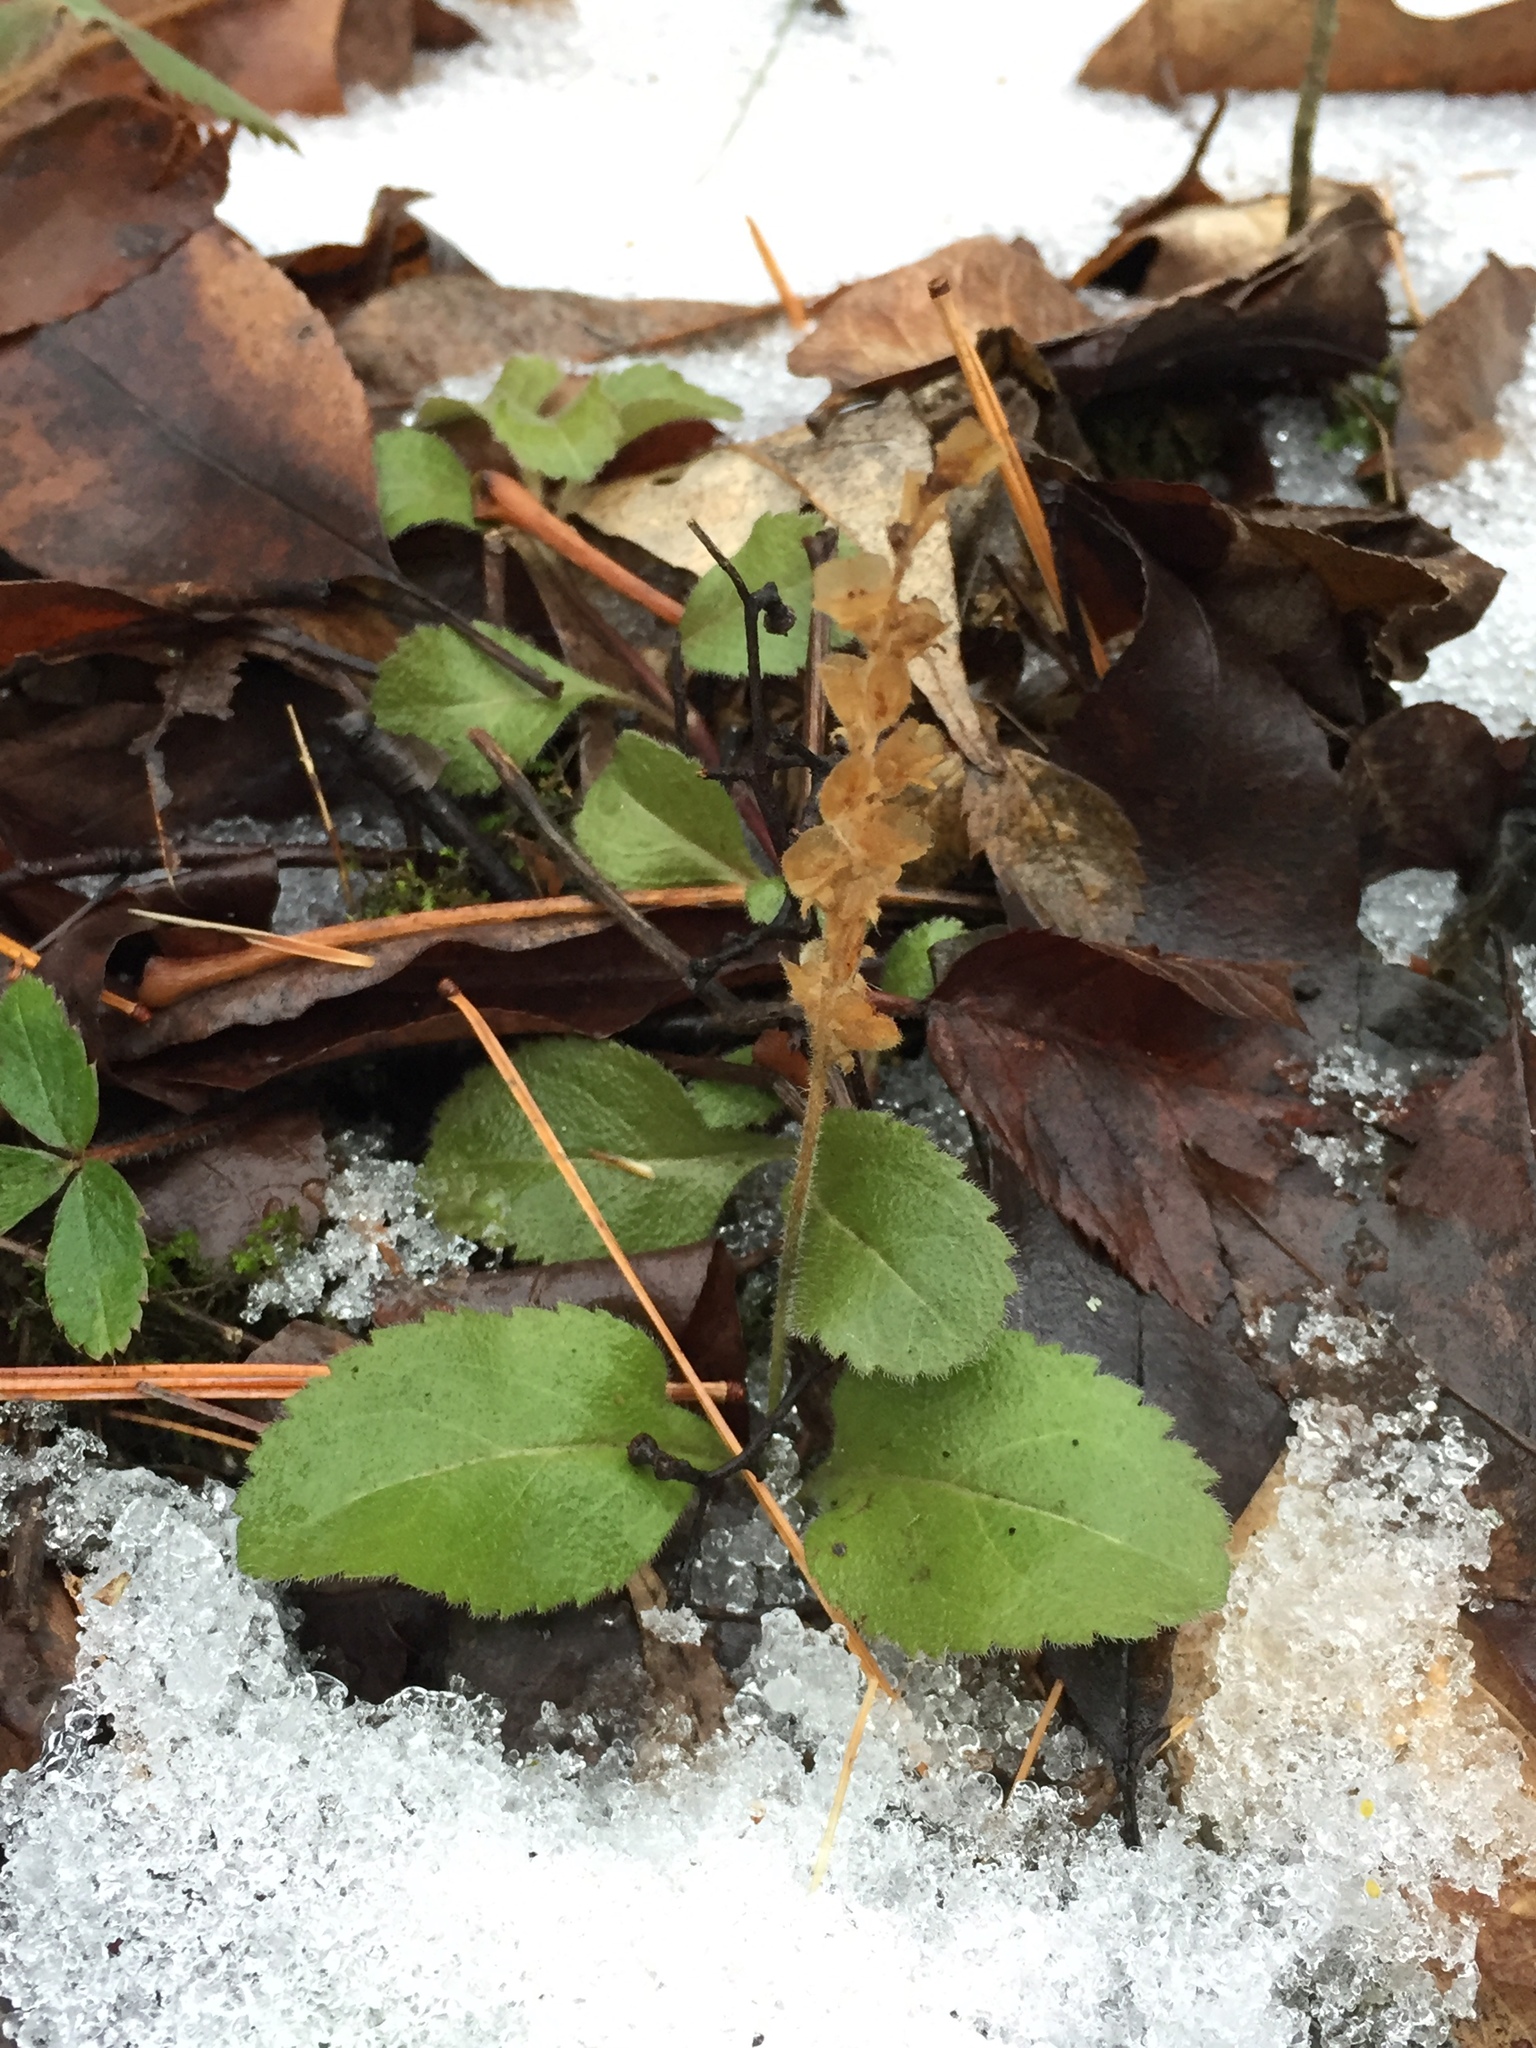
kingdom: Plantae
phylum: Tracheophyta
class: Magnoliopsida
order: Lamiales
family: Plantaginaceae
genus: Veronica
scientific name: Veronica officinalis
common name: Common speedwell
